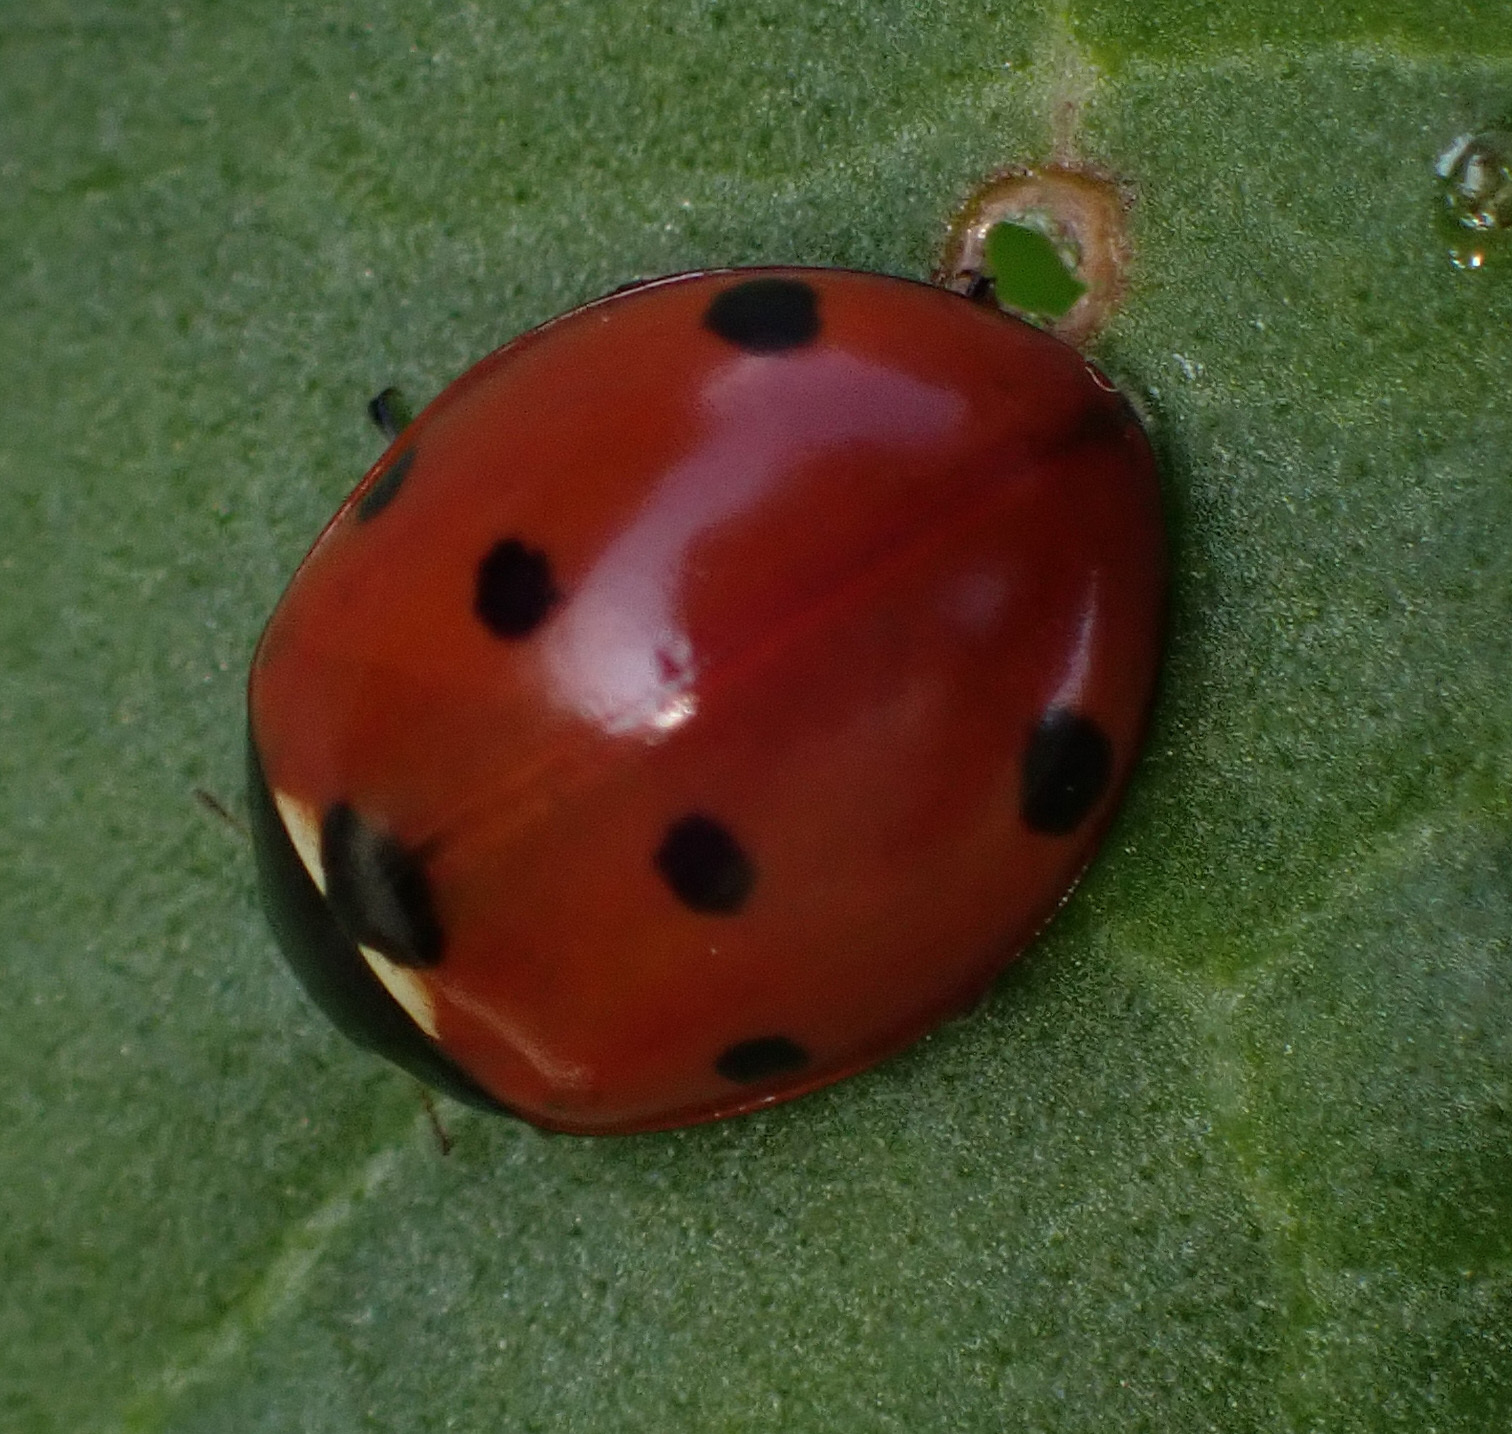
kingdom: Animalia
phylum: Arthropoda
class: Insecta
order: Coleoptera
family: Coccinellidae
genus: Coccinella
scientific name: Coccinella septempunctata
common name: Sevenspotted lady beetle
